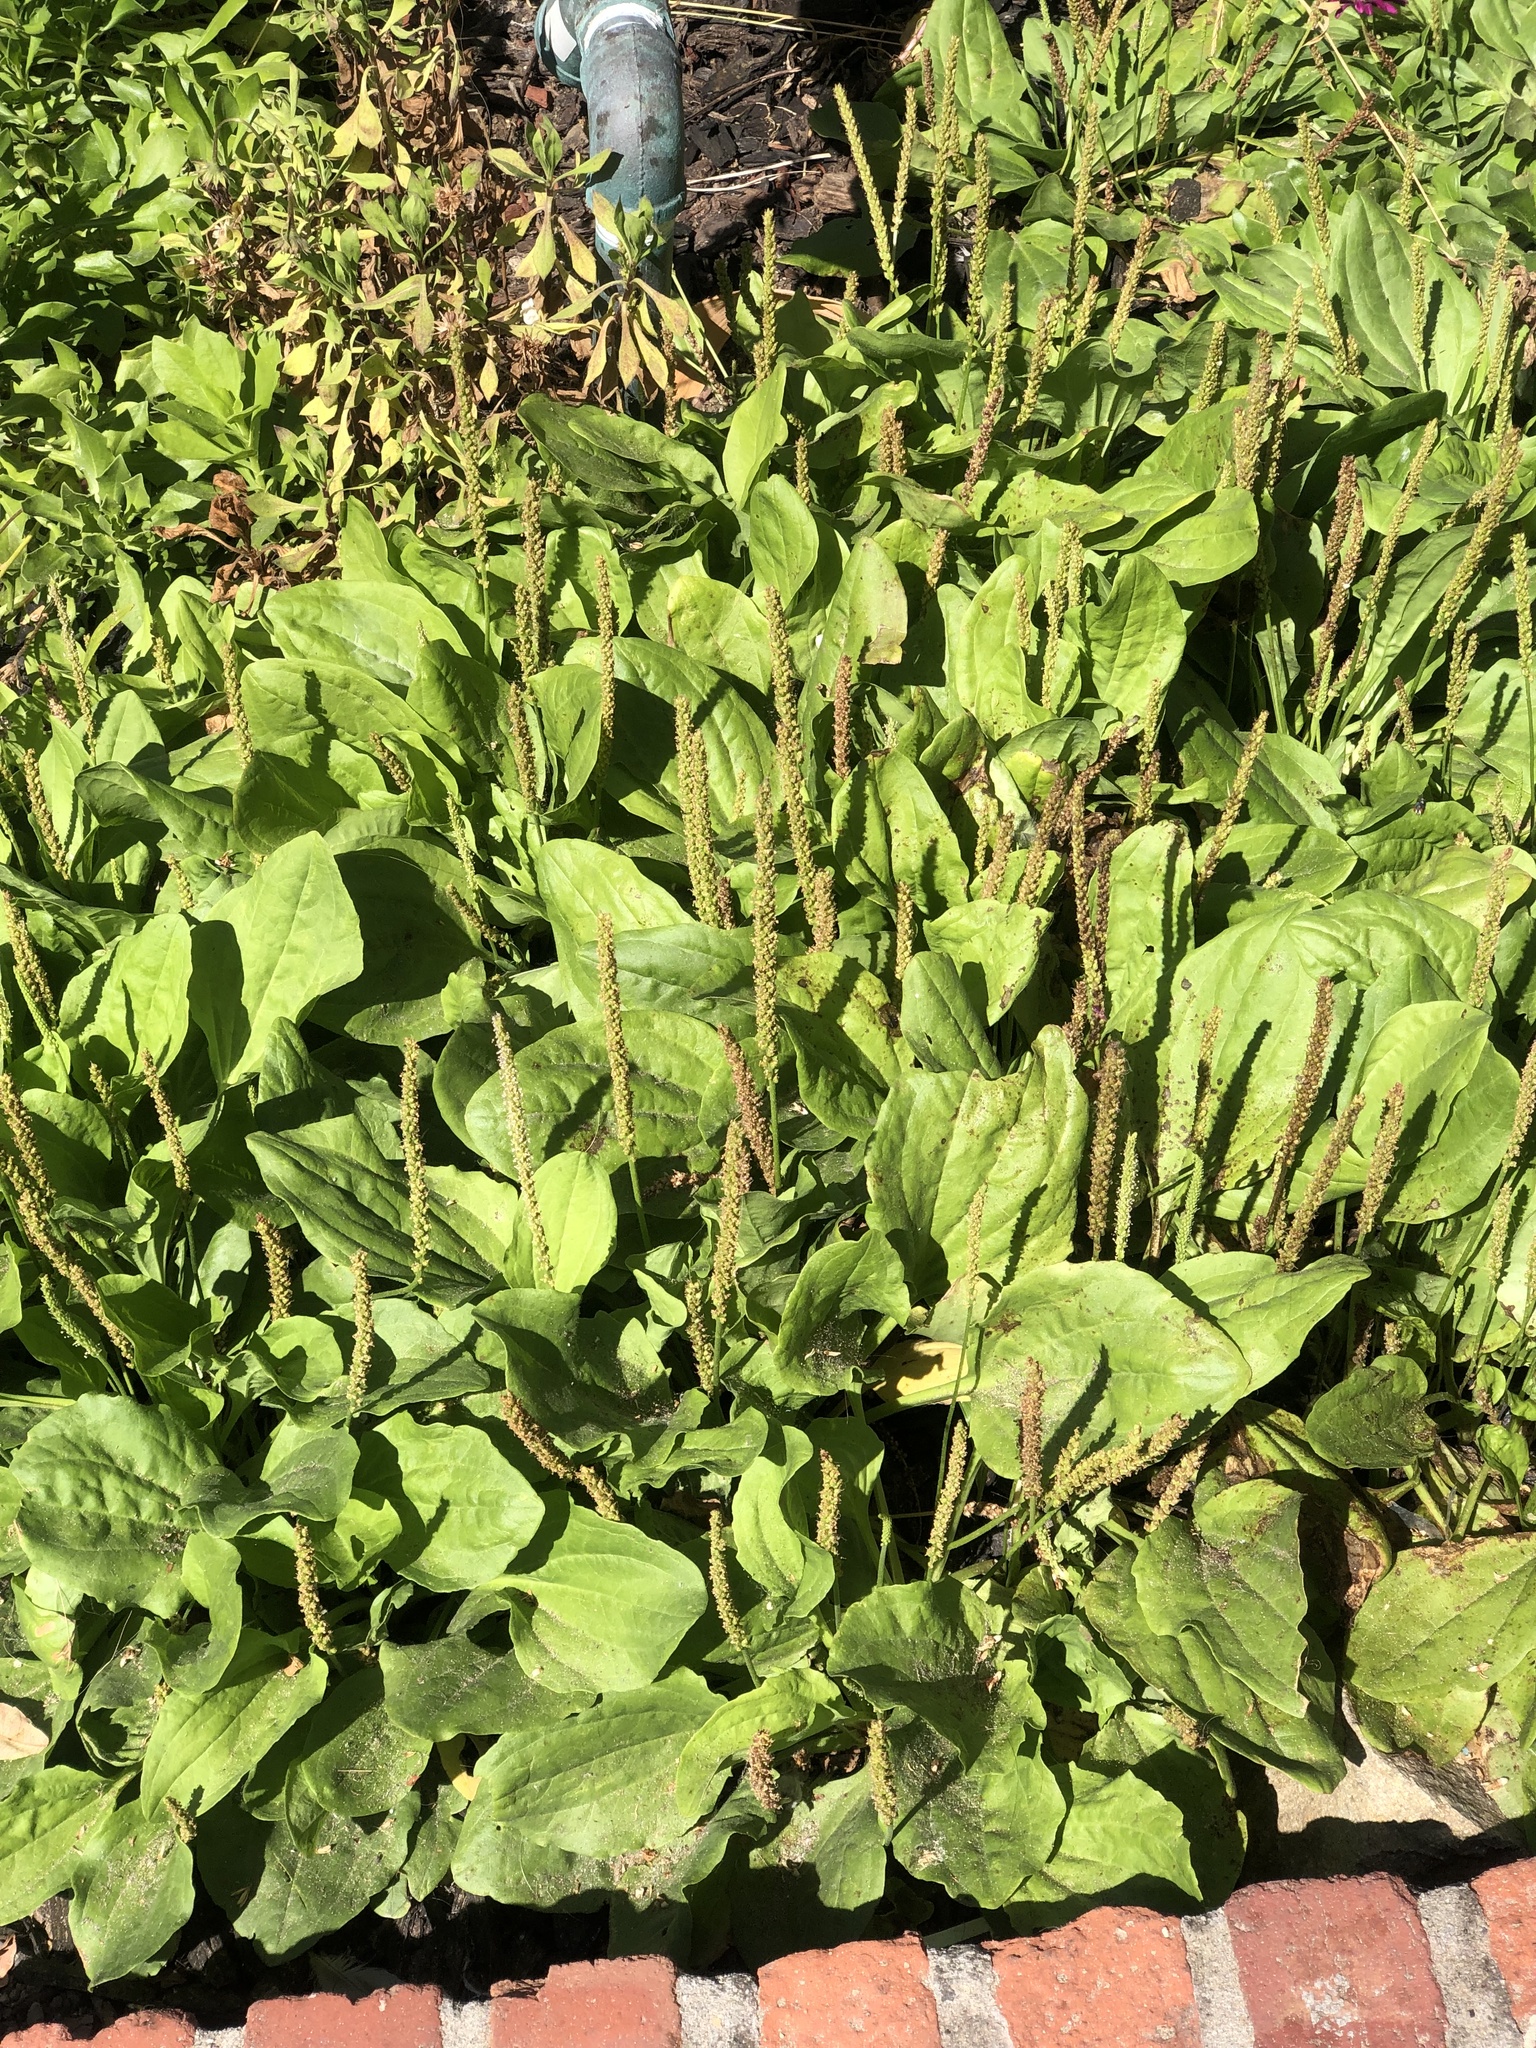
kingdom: Plantae
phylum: Tracheophyta
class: Magnoliopsida
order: Lamiales
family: Plantaginaceae
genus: Plantago
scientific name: Plantago major
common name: Common plantain
